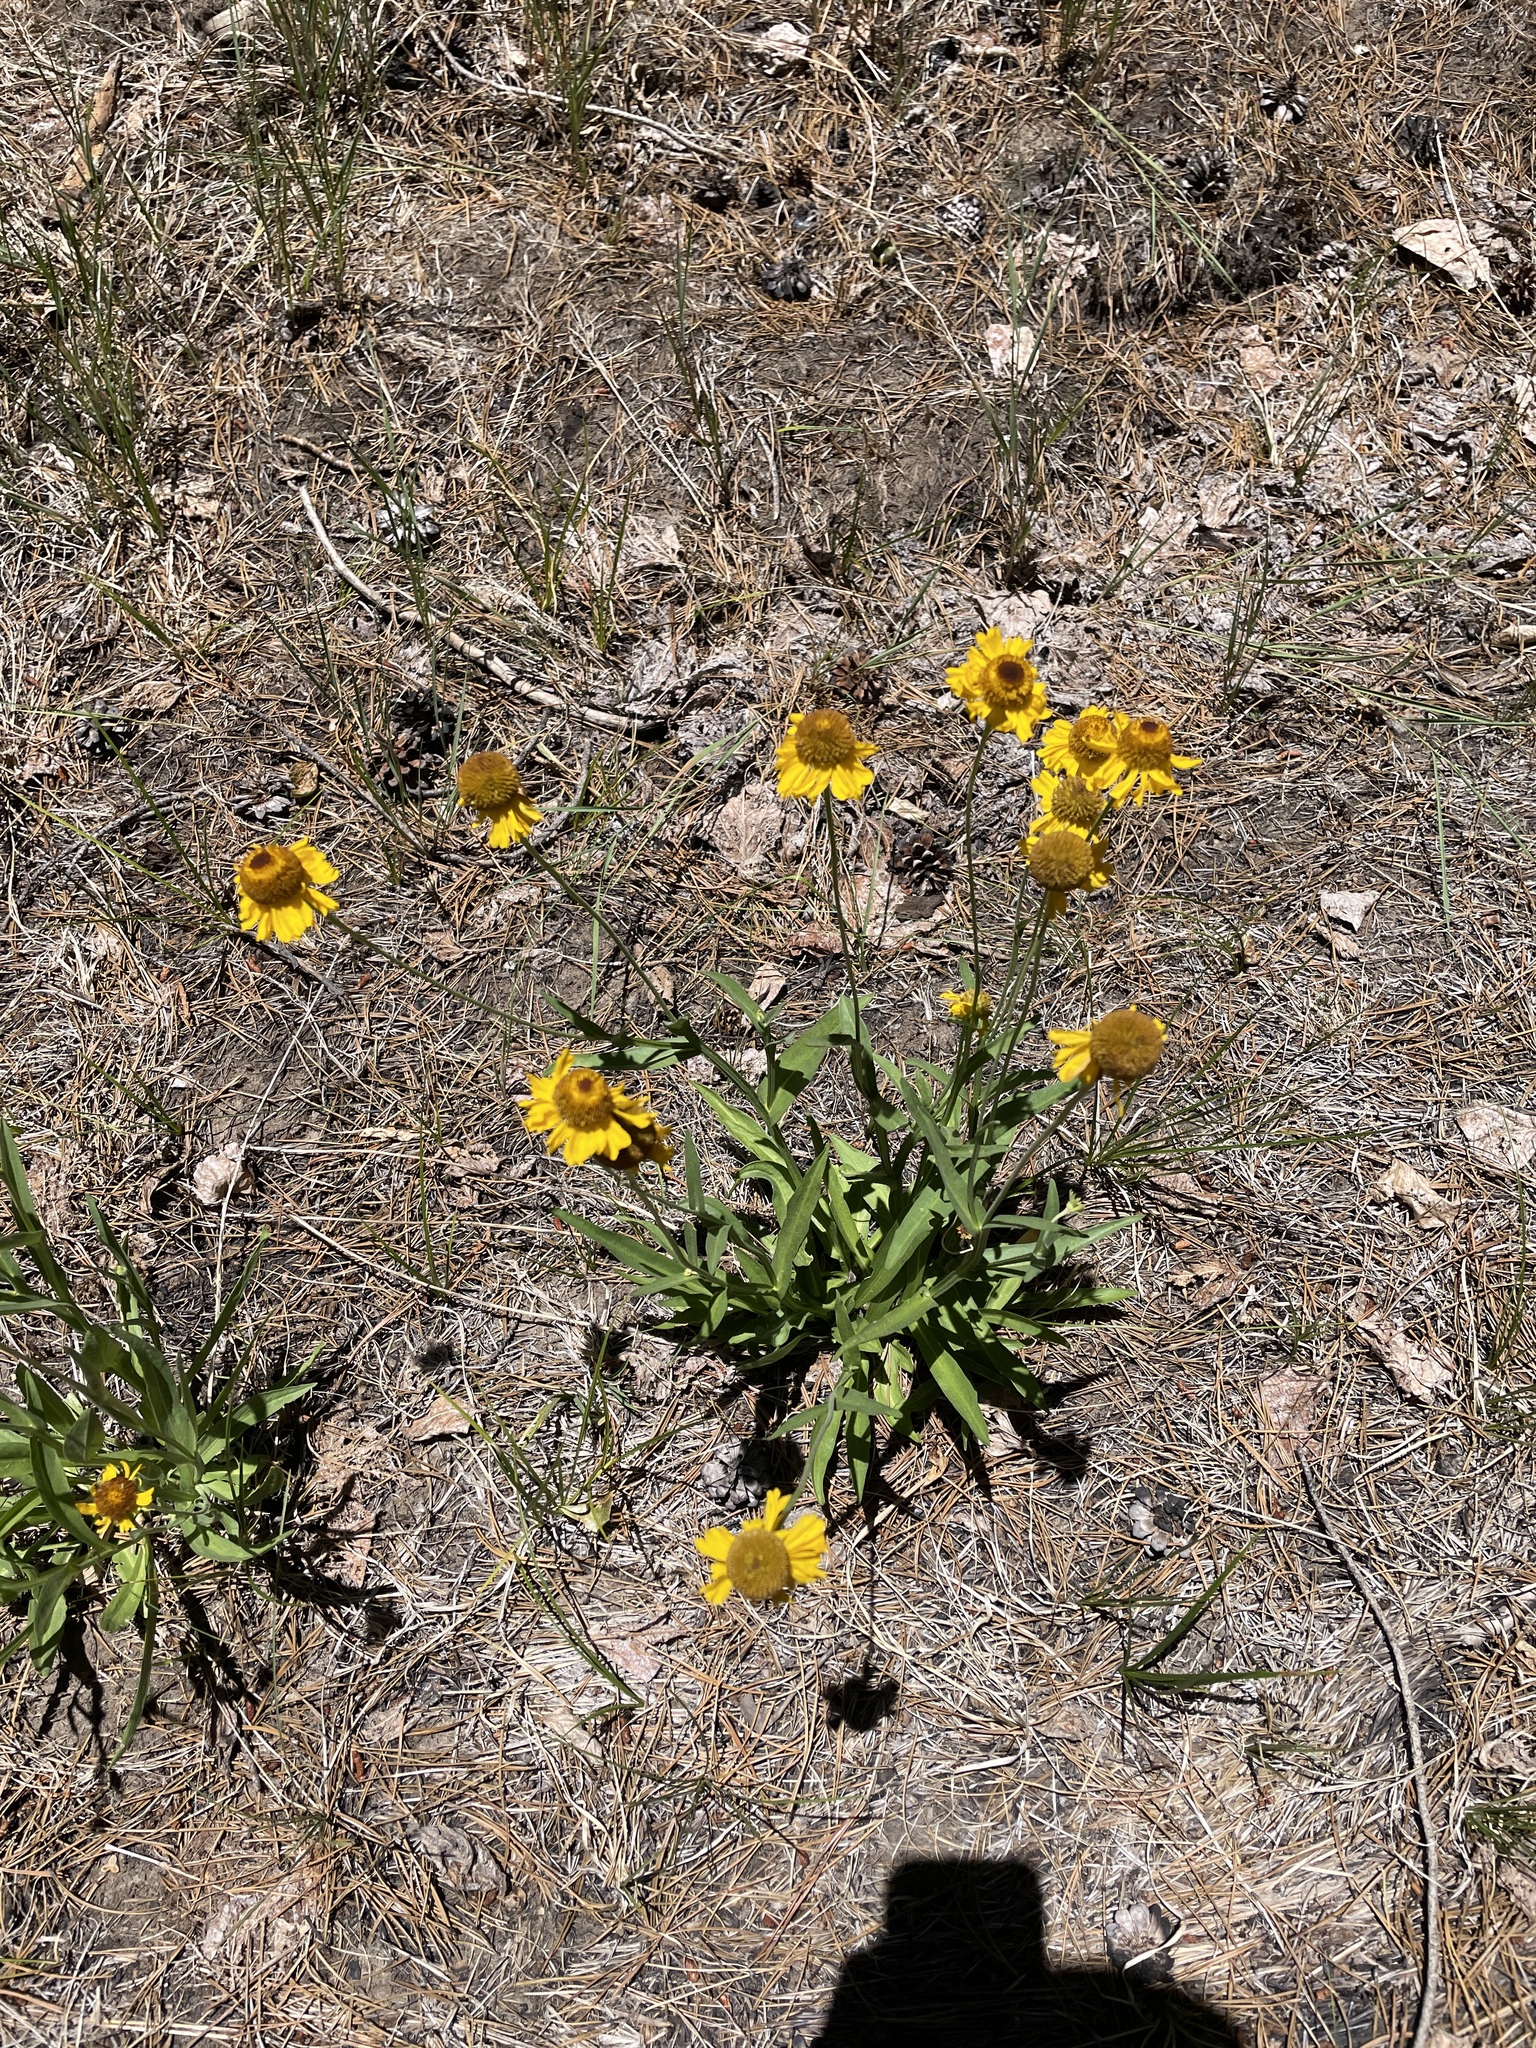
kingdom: Plantae
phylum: Tracheophyta
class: Magnoliopsida
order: Asterales
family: Asteraceae
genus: Helenium
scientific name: Helenium bigelovii
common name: Bigelow's sneezeweed
